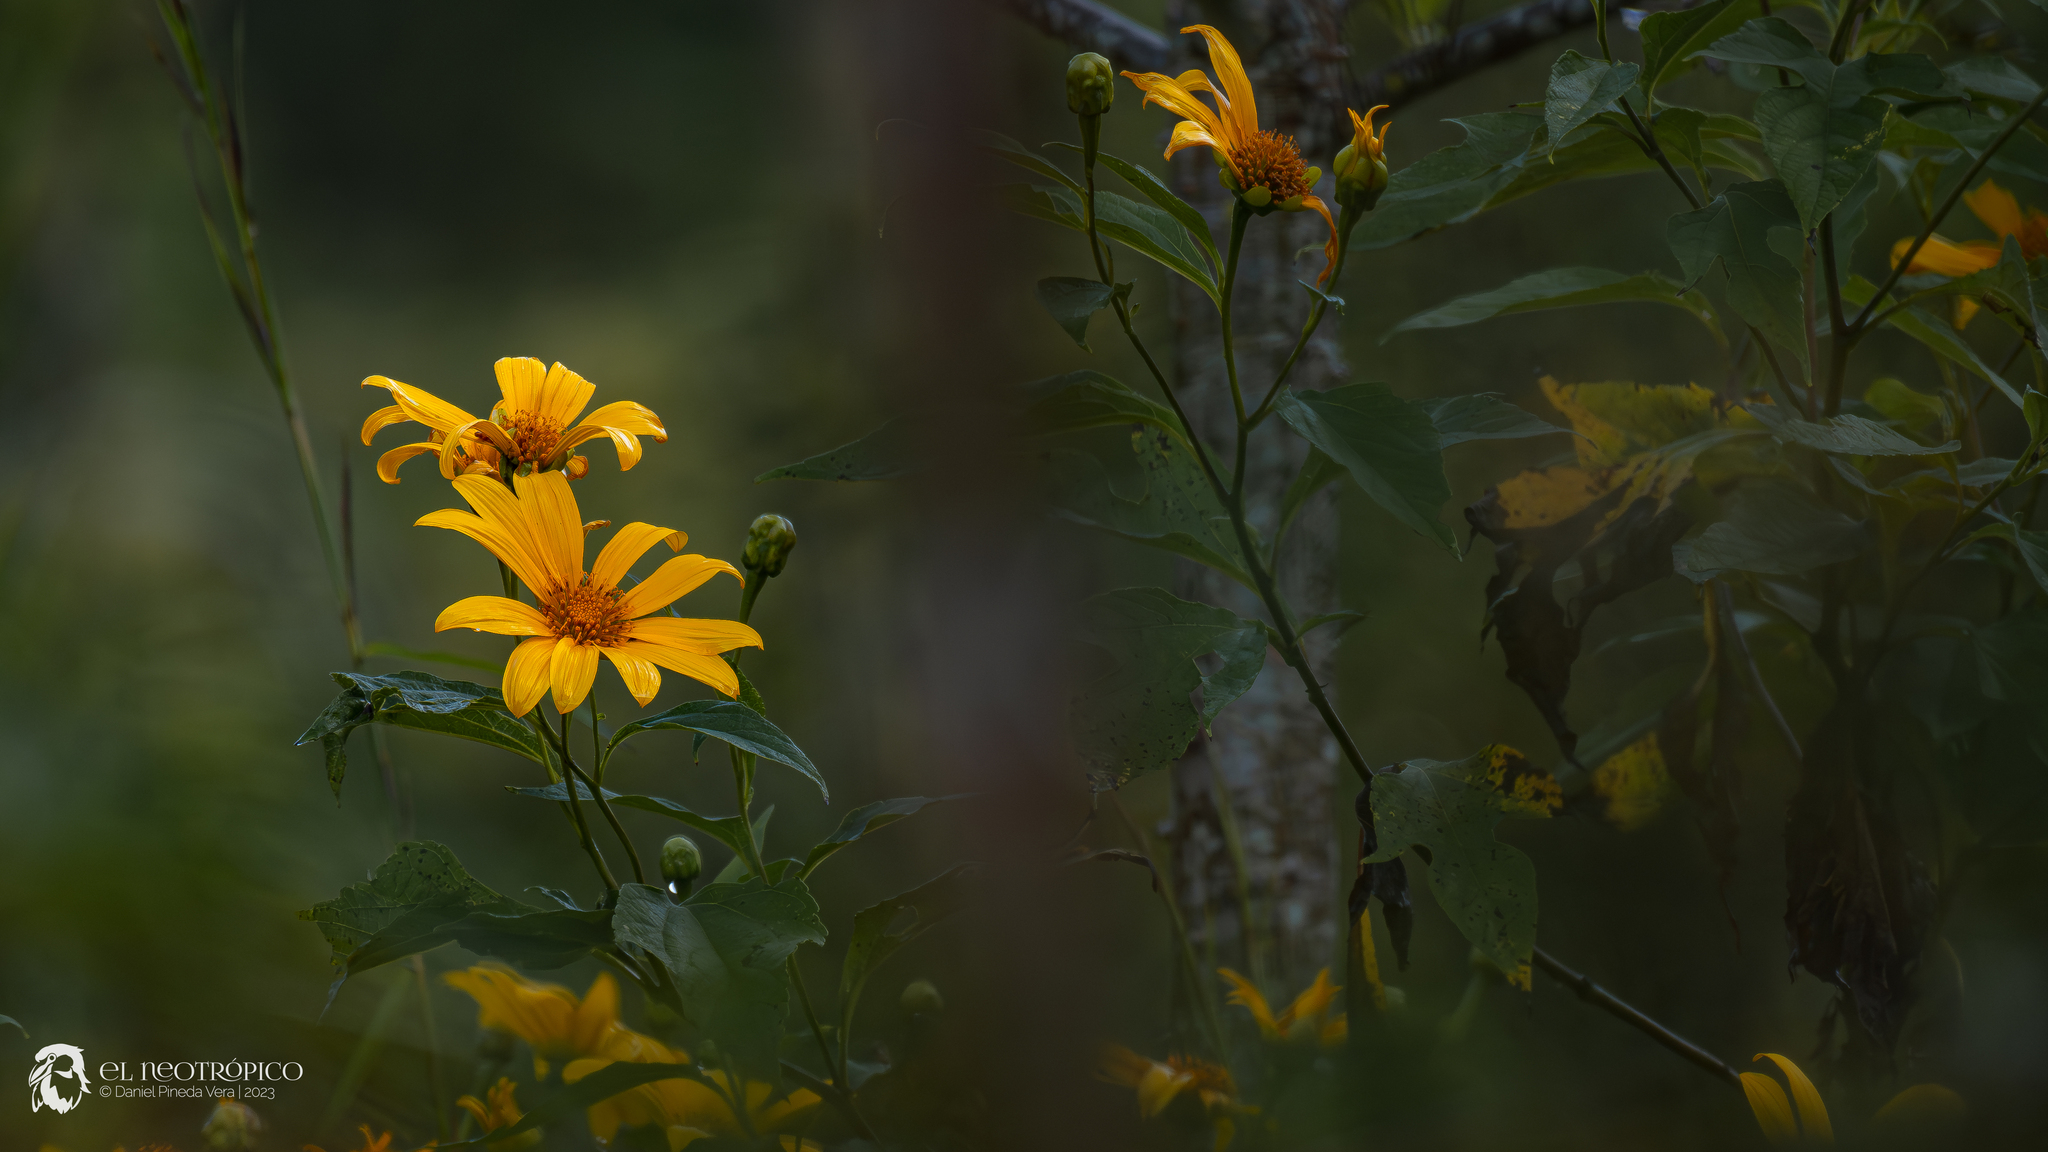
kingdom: Plantae
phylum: Tracheophyta
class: Magnoliopsida
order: Asterales
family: Asteraceae
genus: Tithonia
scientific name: Tithonia diversifolia
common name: Tree marigold
